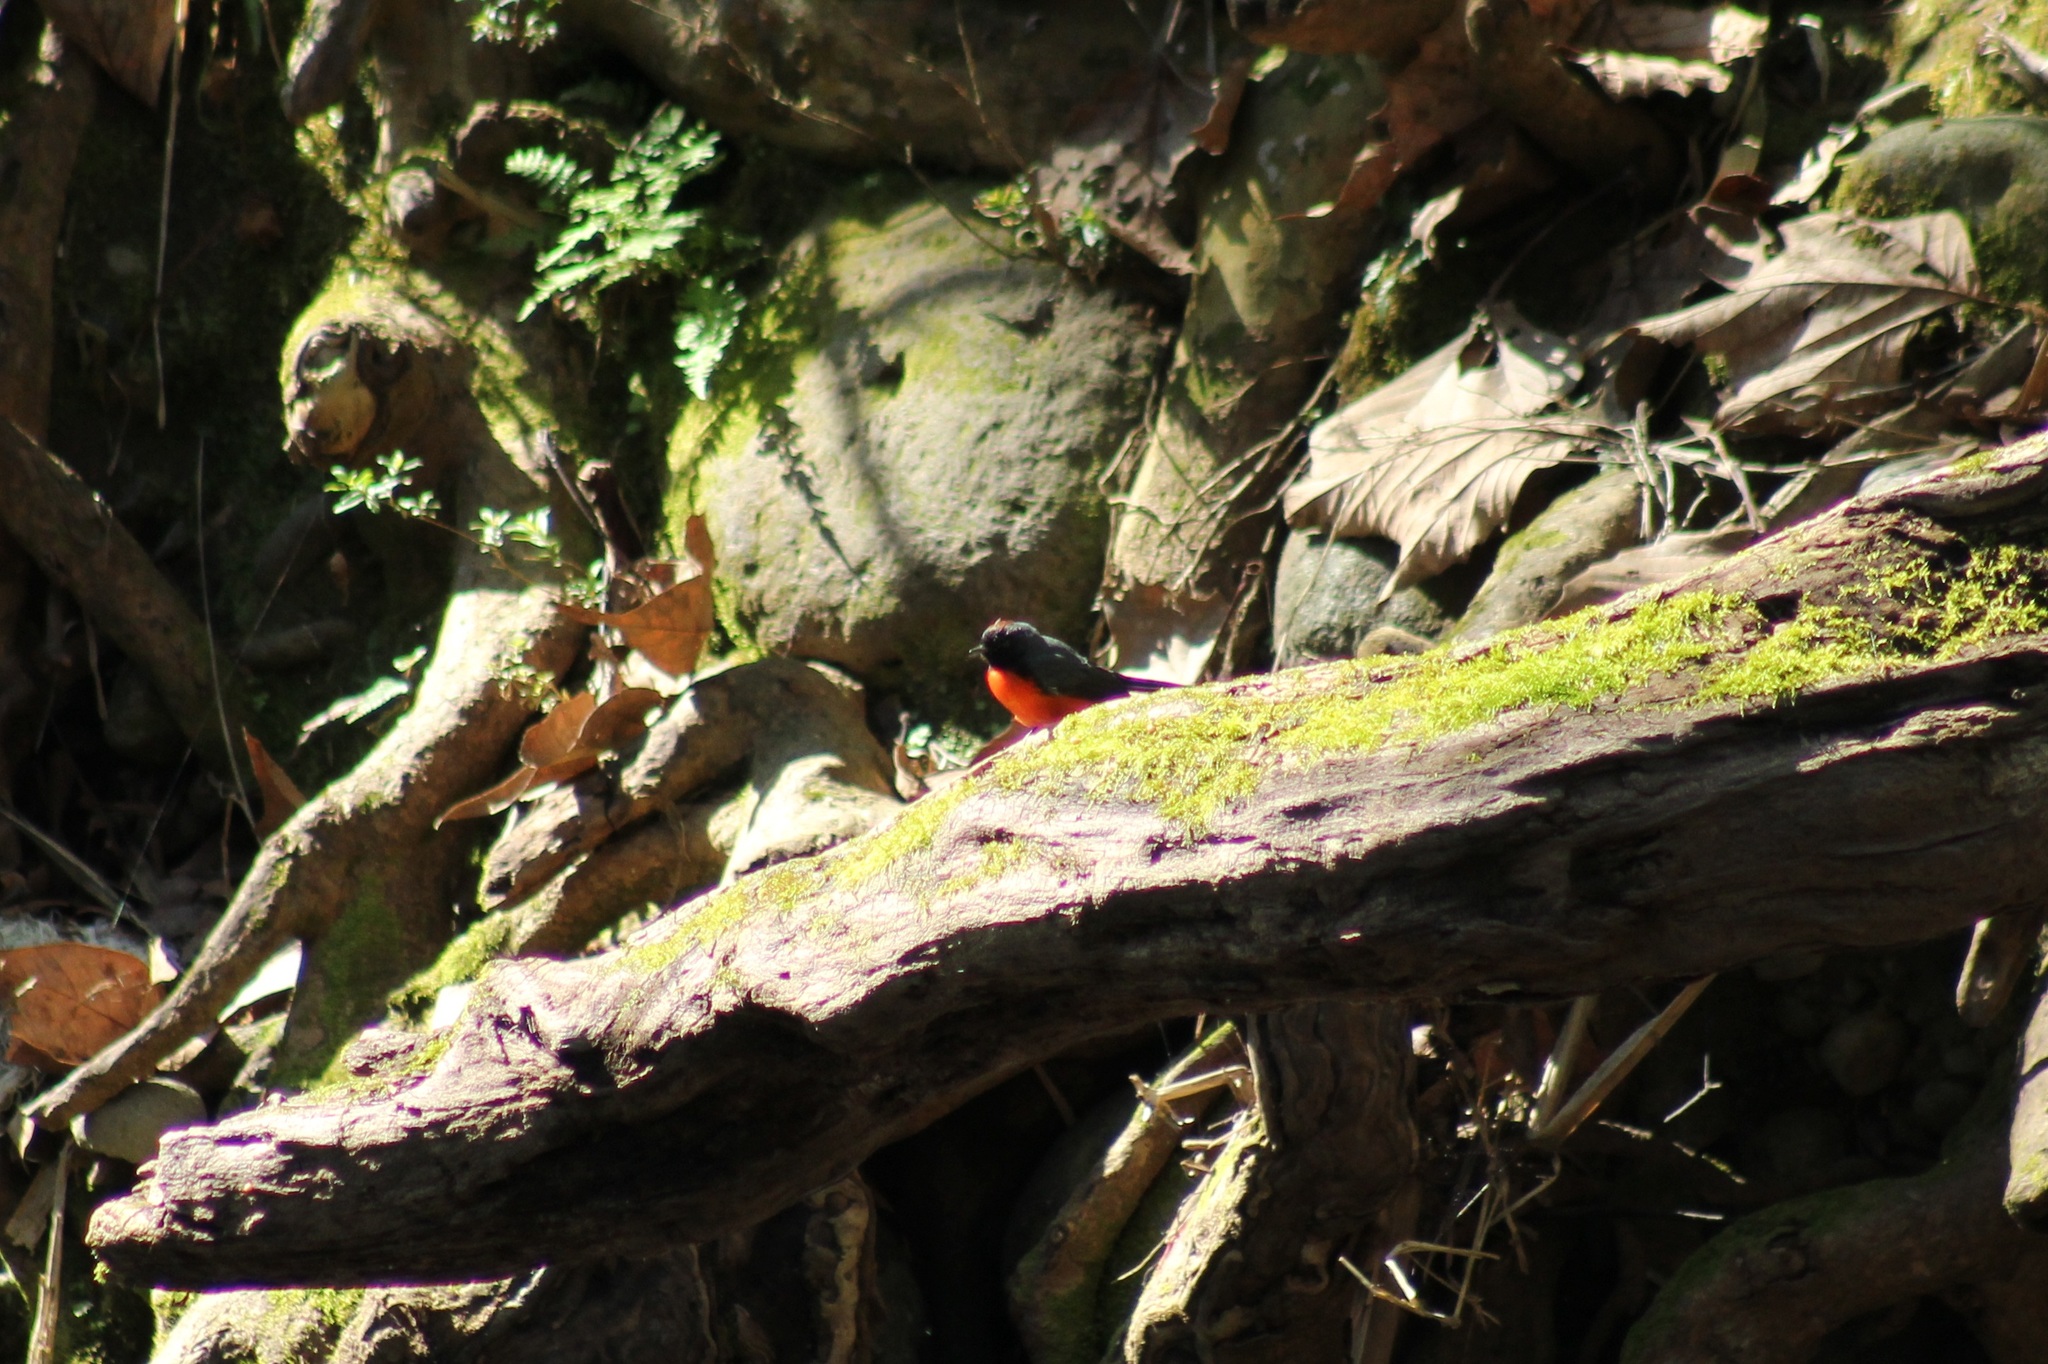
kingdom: Animalia
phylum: Chordata
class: Aves
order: Passeriformes
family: Parulidae
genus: Myioborus
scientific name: Myioborus miniatus
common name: Slate-throated redstart
